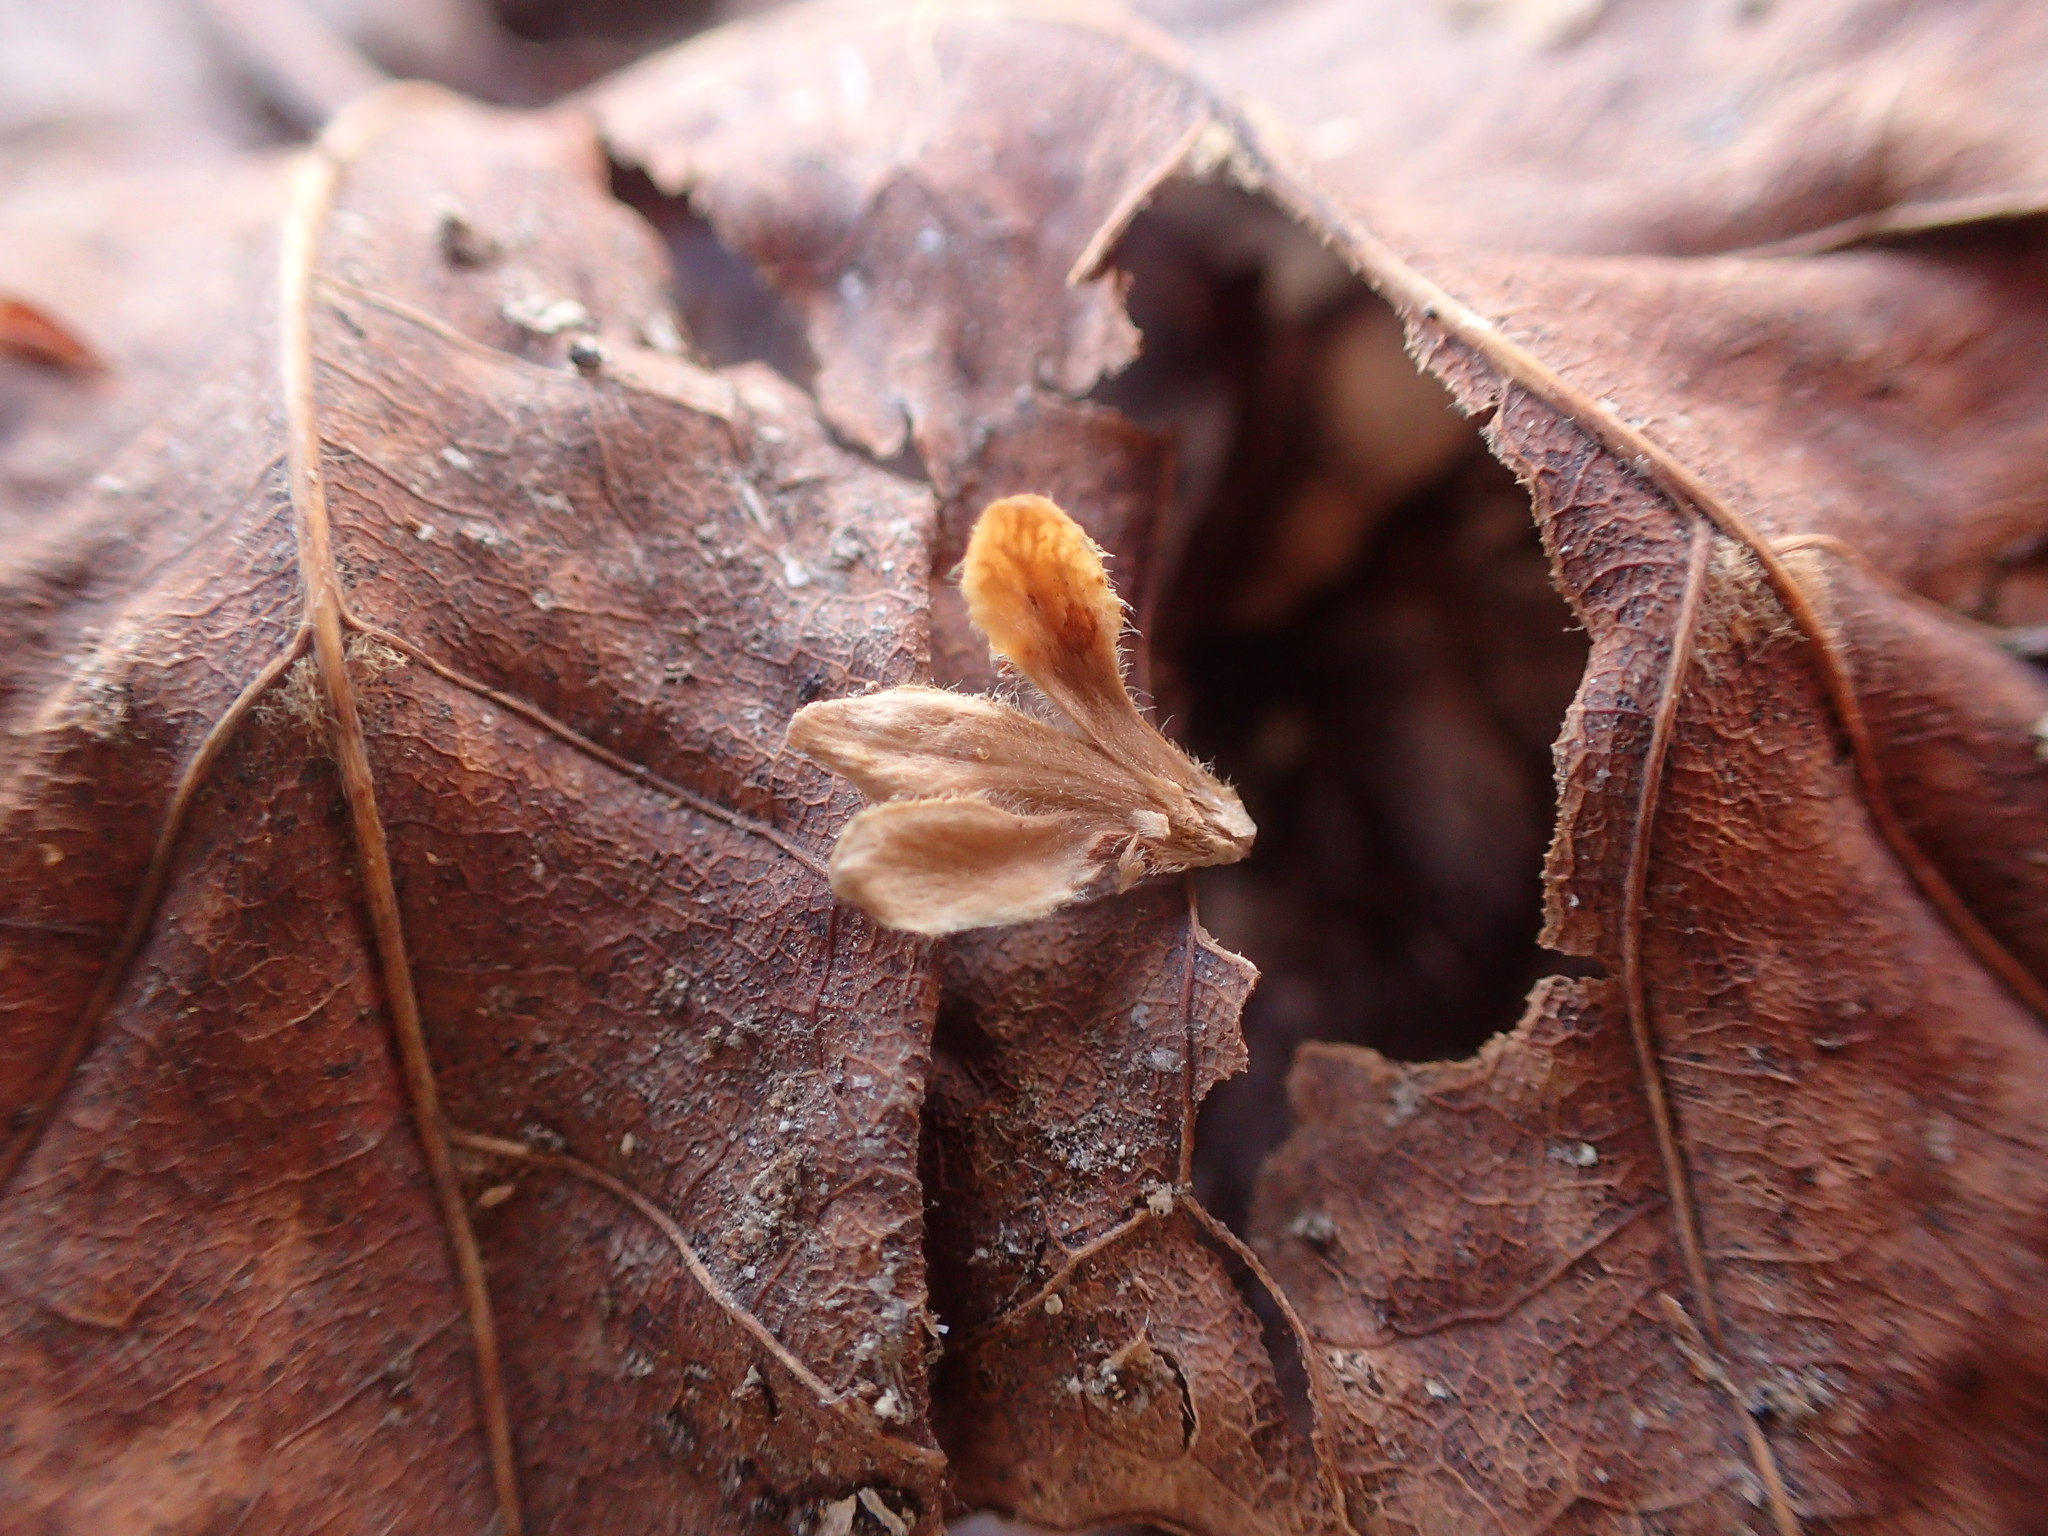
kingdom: Plantae
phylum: Tracheophyta
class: Magnoliopsida
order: Fagales
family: Betulaceae
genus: Betula
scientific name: Betula alleghaniensis
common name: Yellow birch
